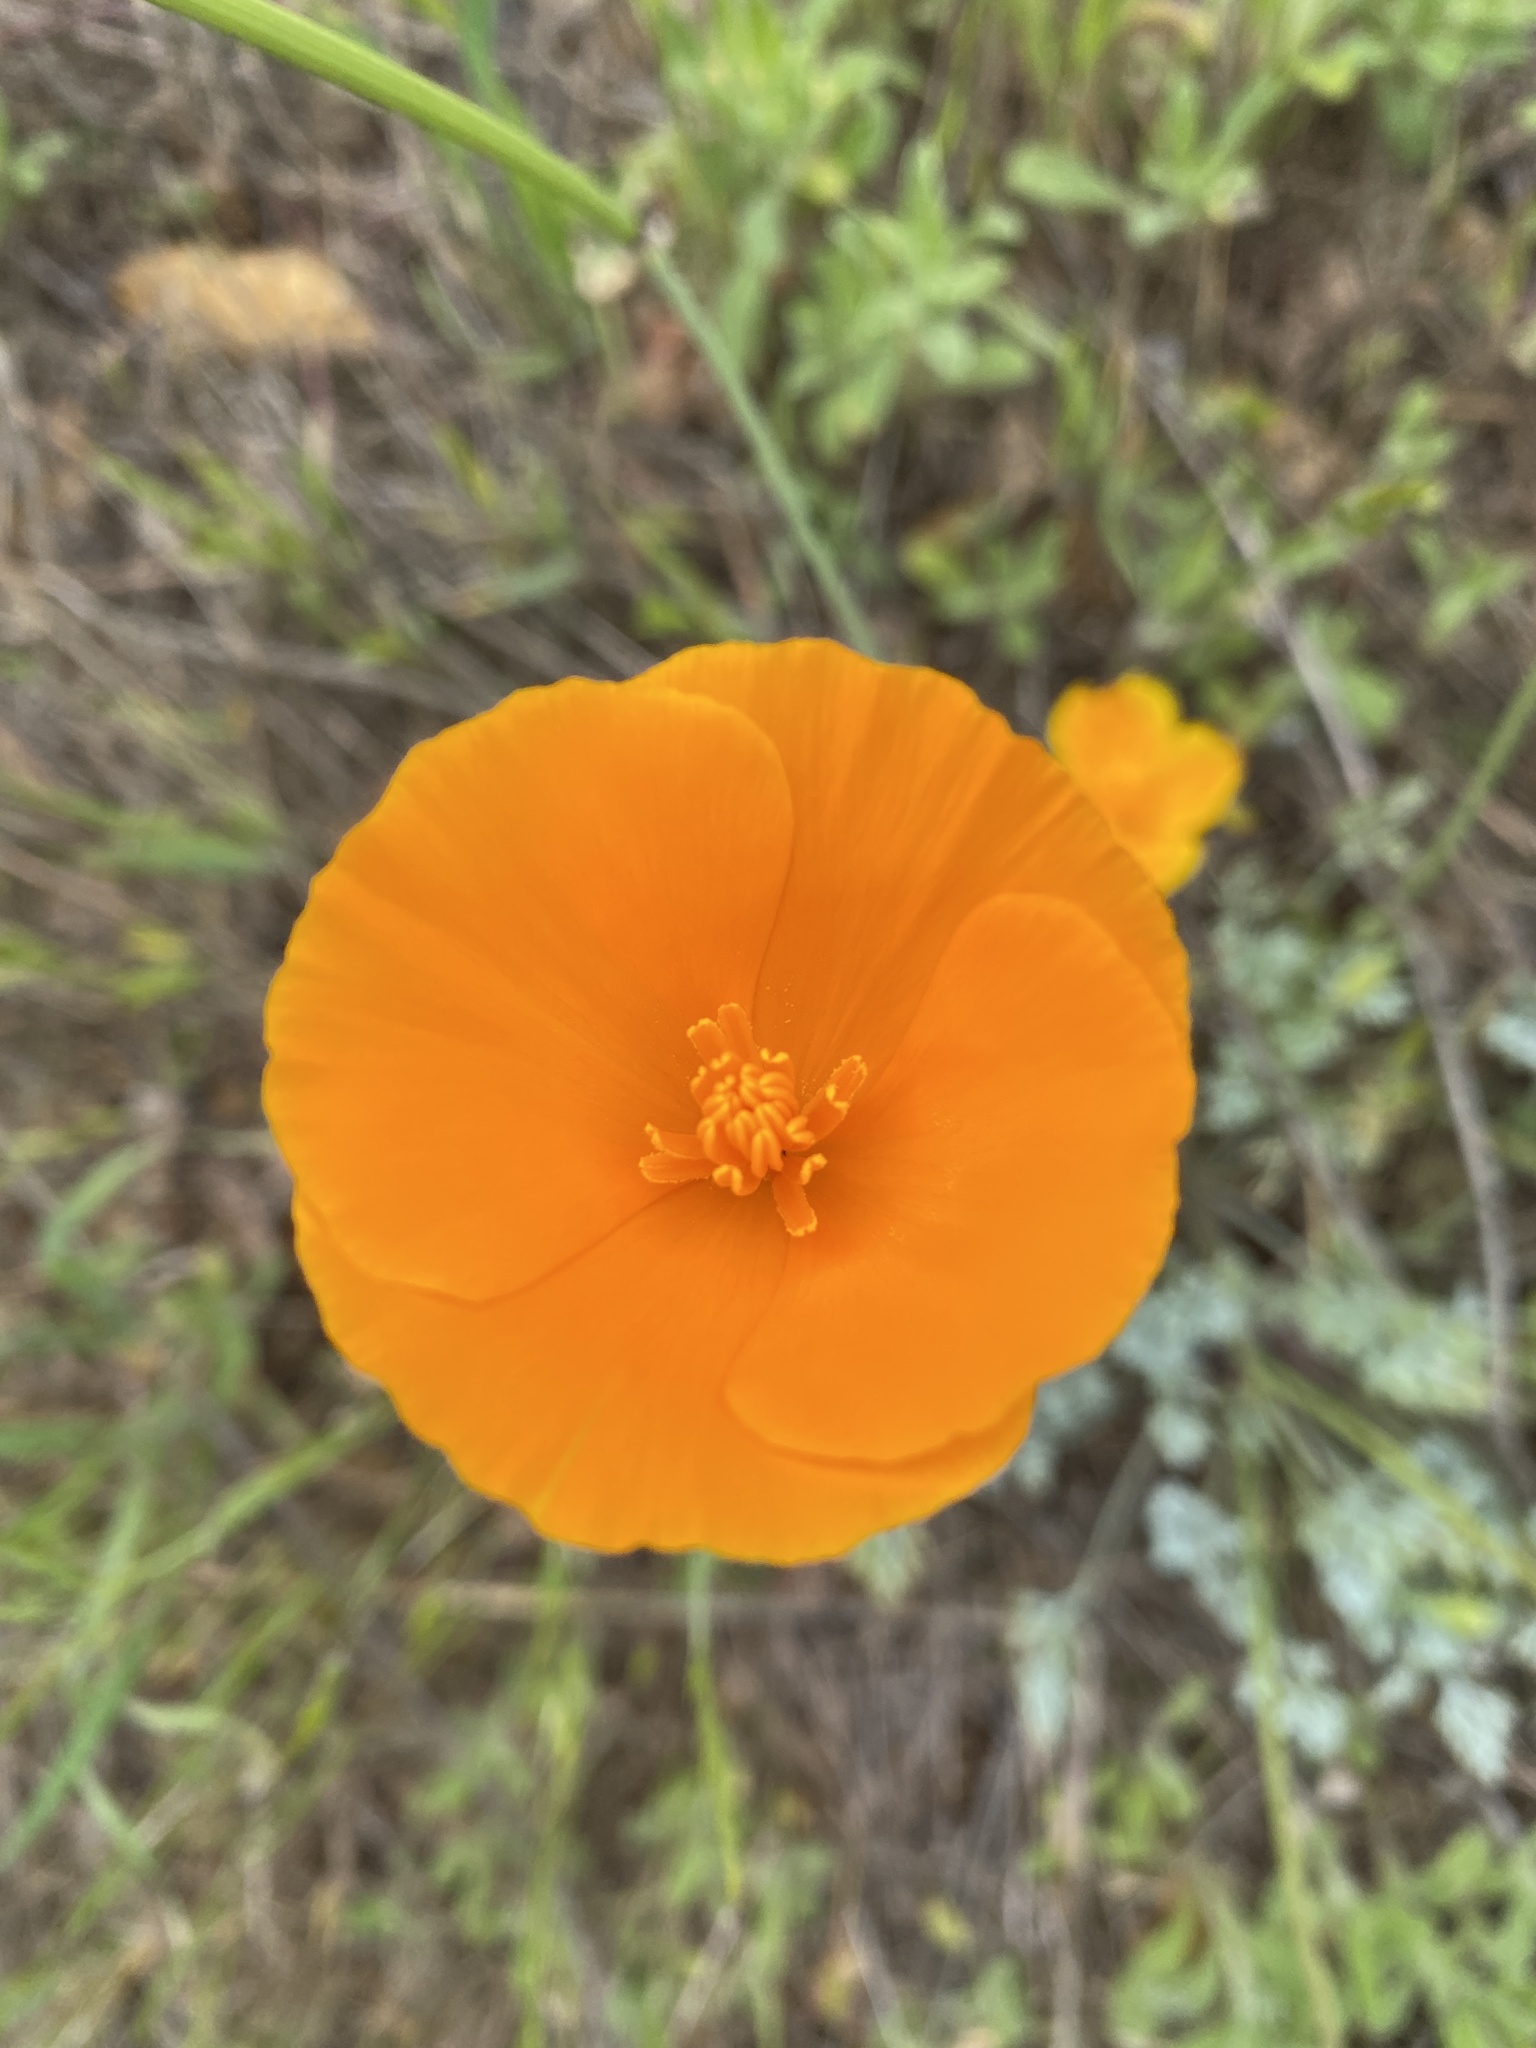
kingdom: Plantae
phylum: Tracheophyta
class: Magnoliopsida
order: Ranunculales
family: Papaveraceae
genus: Eschscholzia
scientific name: Eschscholzia californica
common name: California poppy
